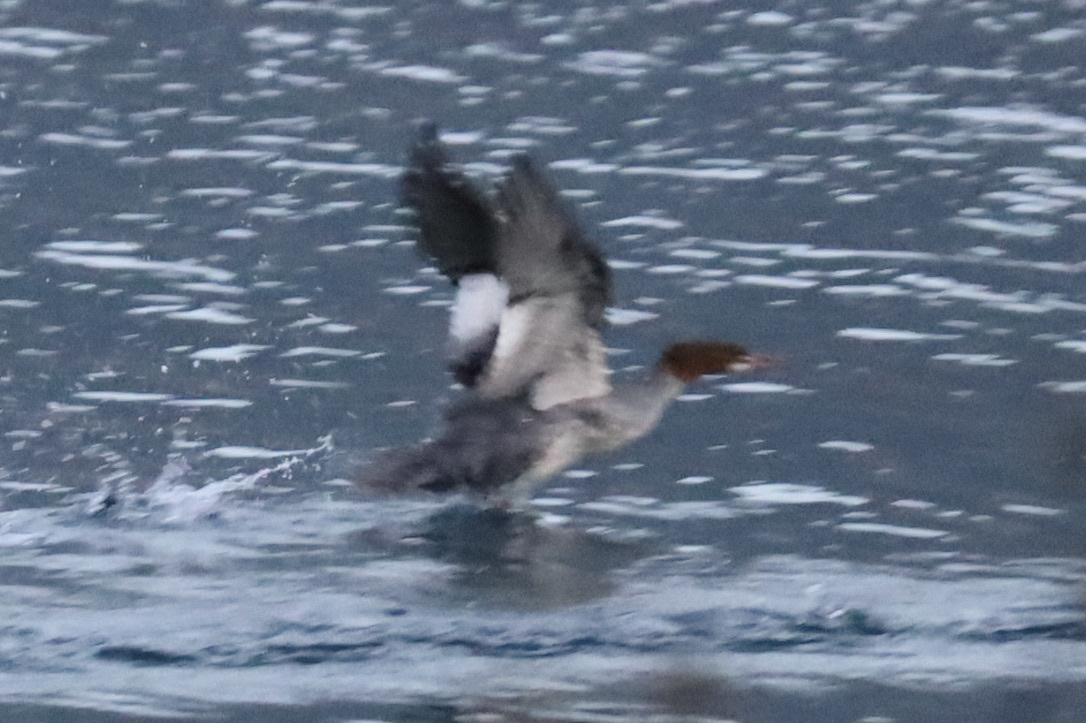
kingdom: Animalia
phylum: Chordata
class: Aves
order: Anseriformes
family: Anatidae
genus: Mergus
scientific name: Mergus merganser
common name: Common merganser
